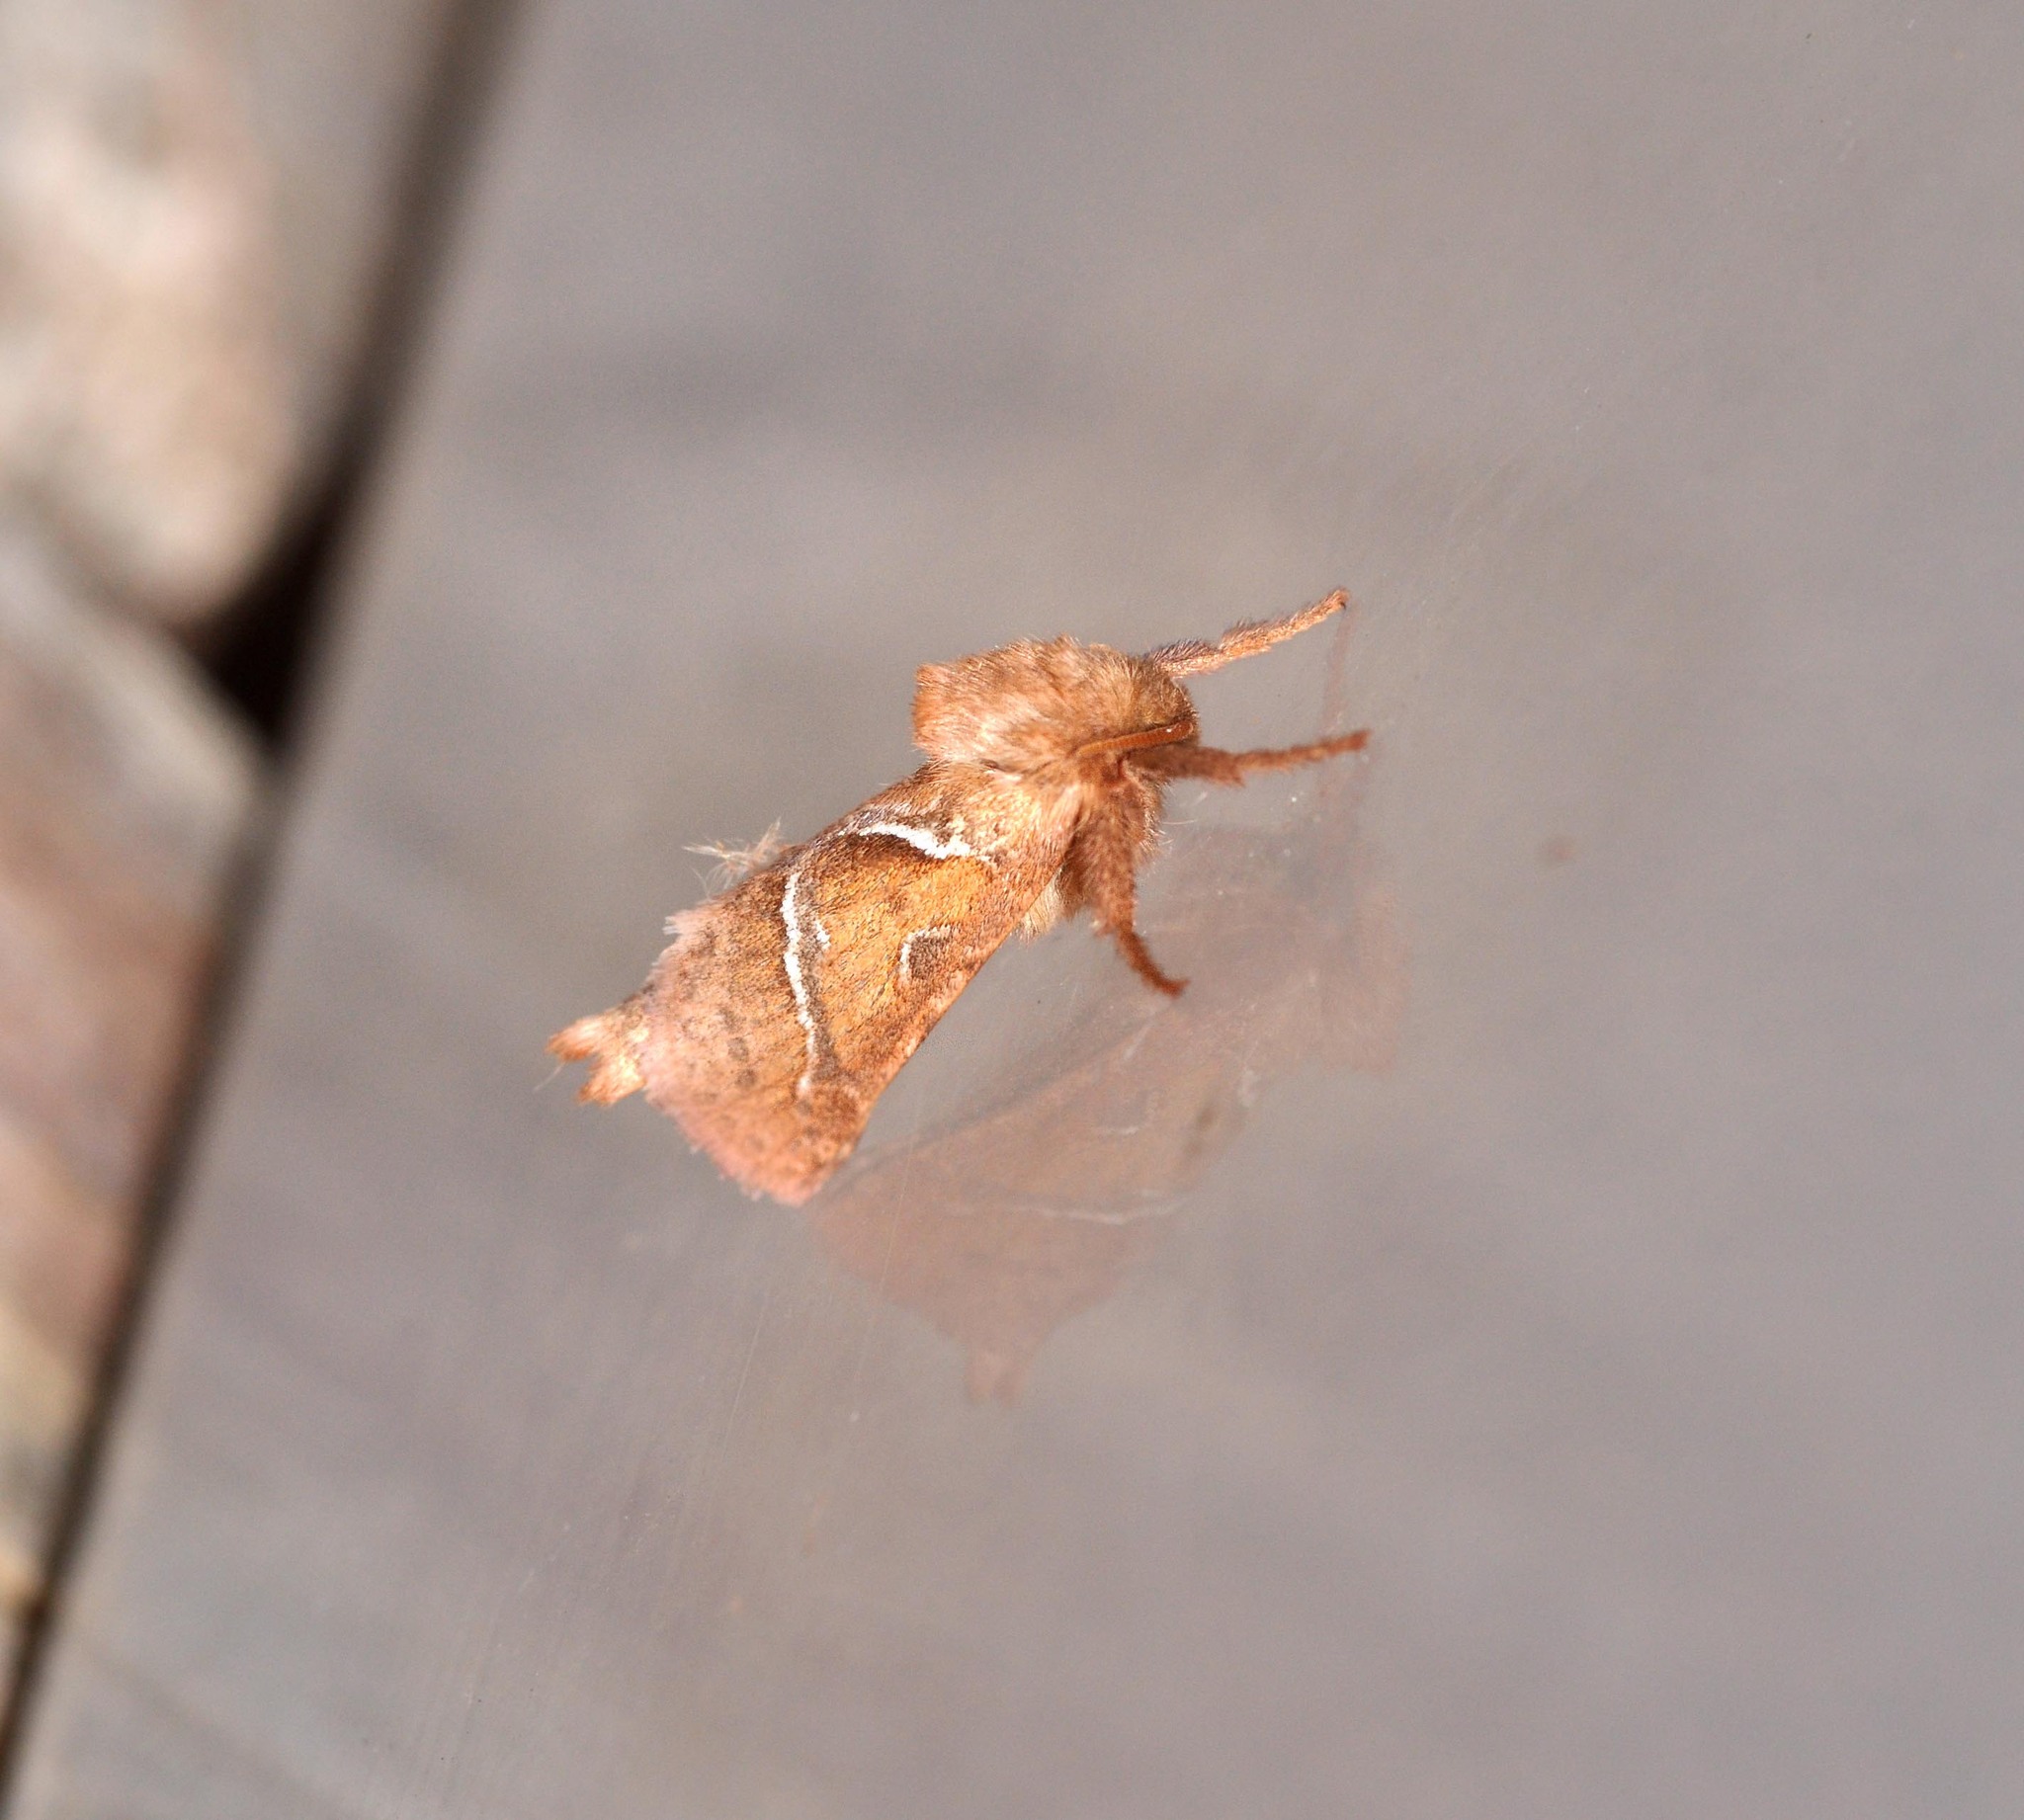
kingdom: Animalia
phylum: Arthropoda
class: Insecta
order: Lepidoptera
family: Hepialidae
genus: Triodia
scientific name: Triodia sylvina
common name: Orange swift
